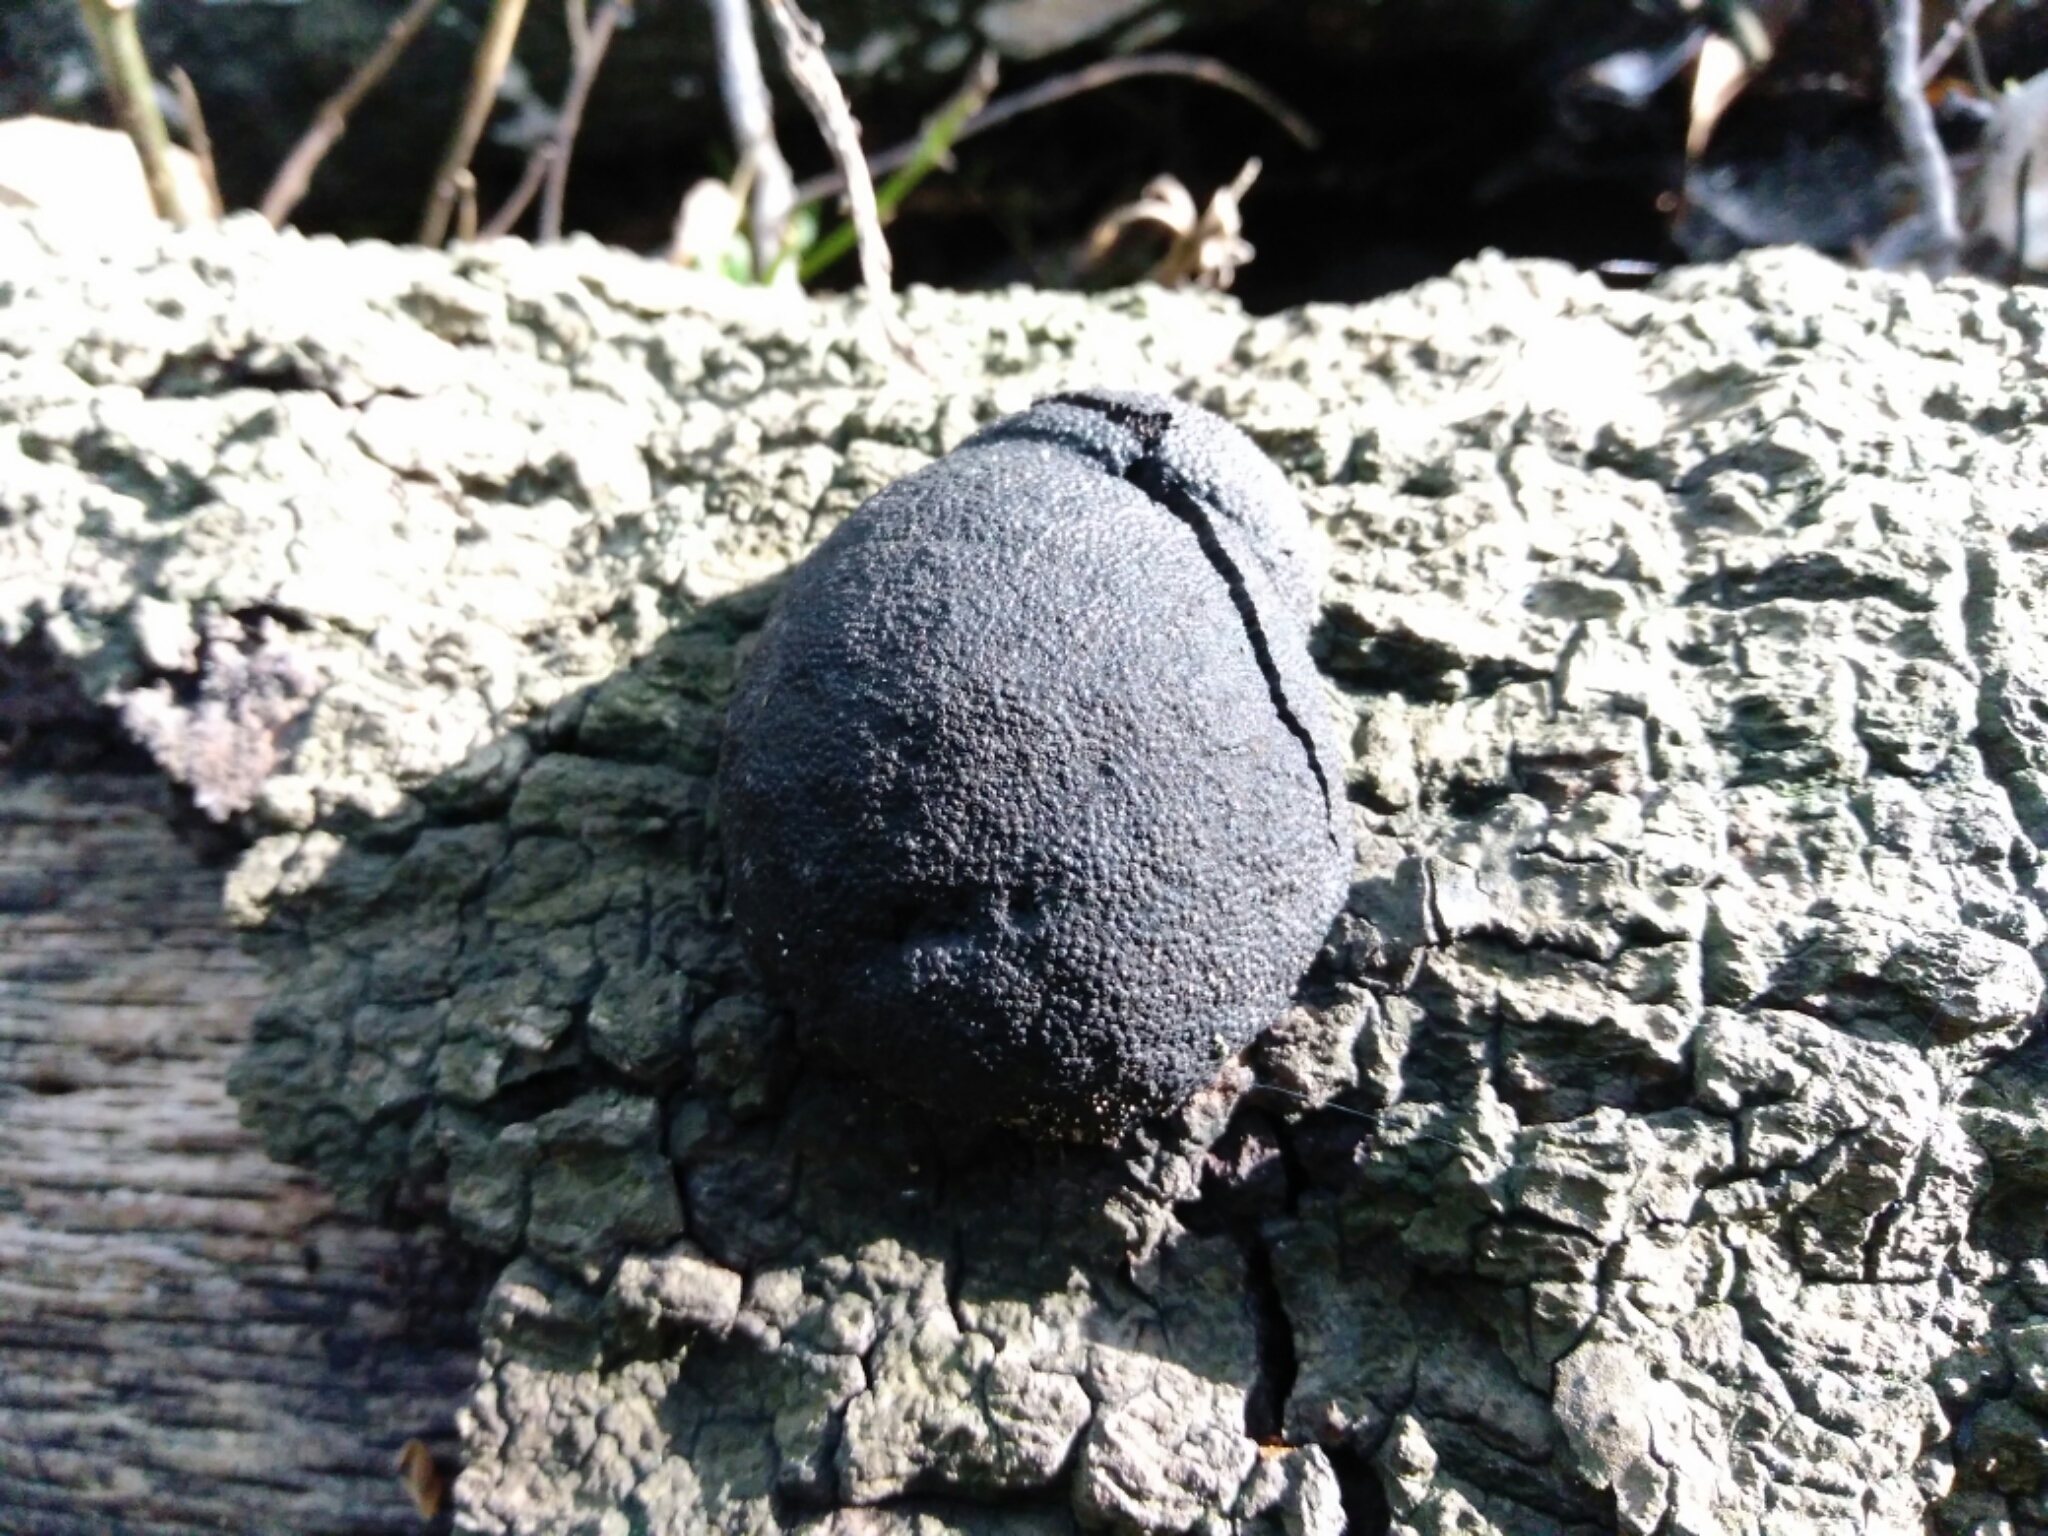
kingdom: Fungi
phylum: Ascomycota
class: Sordariomycetes
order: Xylariales
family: Hypoxylaceae
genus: Annulohypoxylon
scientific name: Annulohypoxylon thouarsianum
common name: Cramp balls
